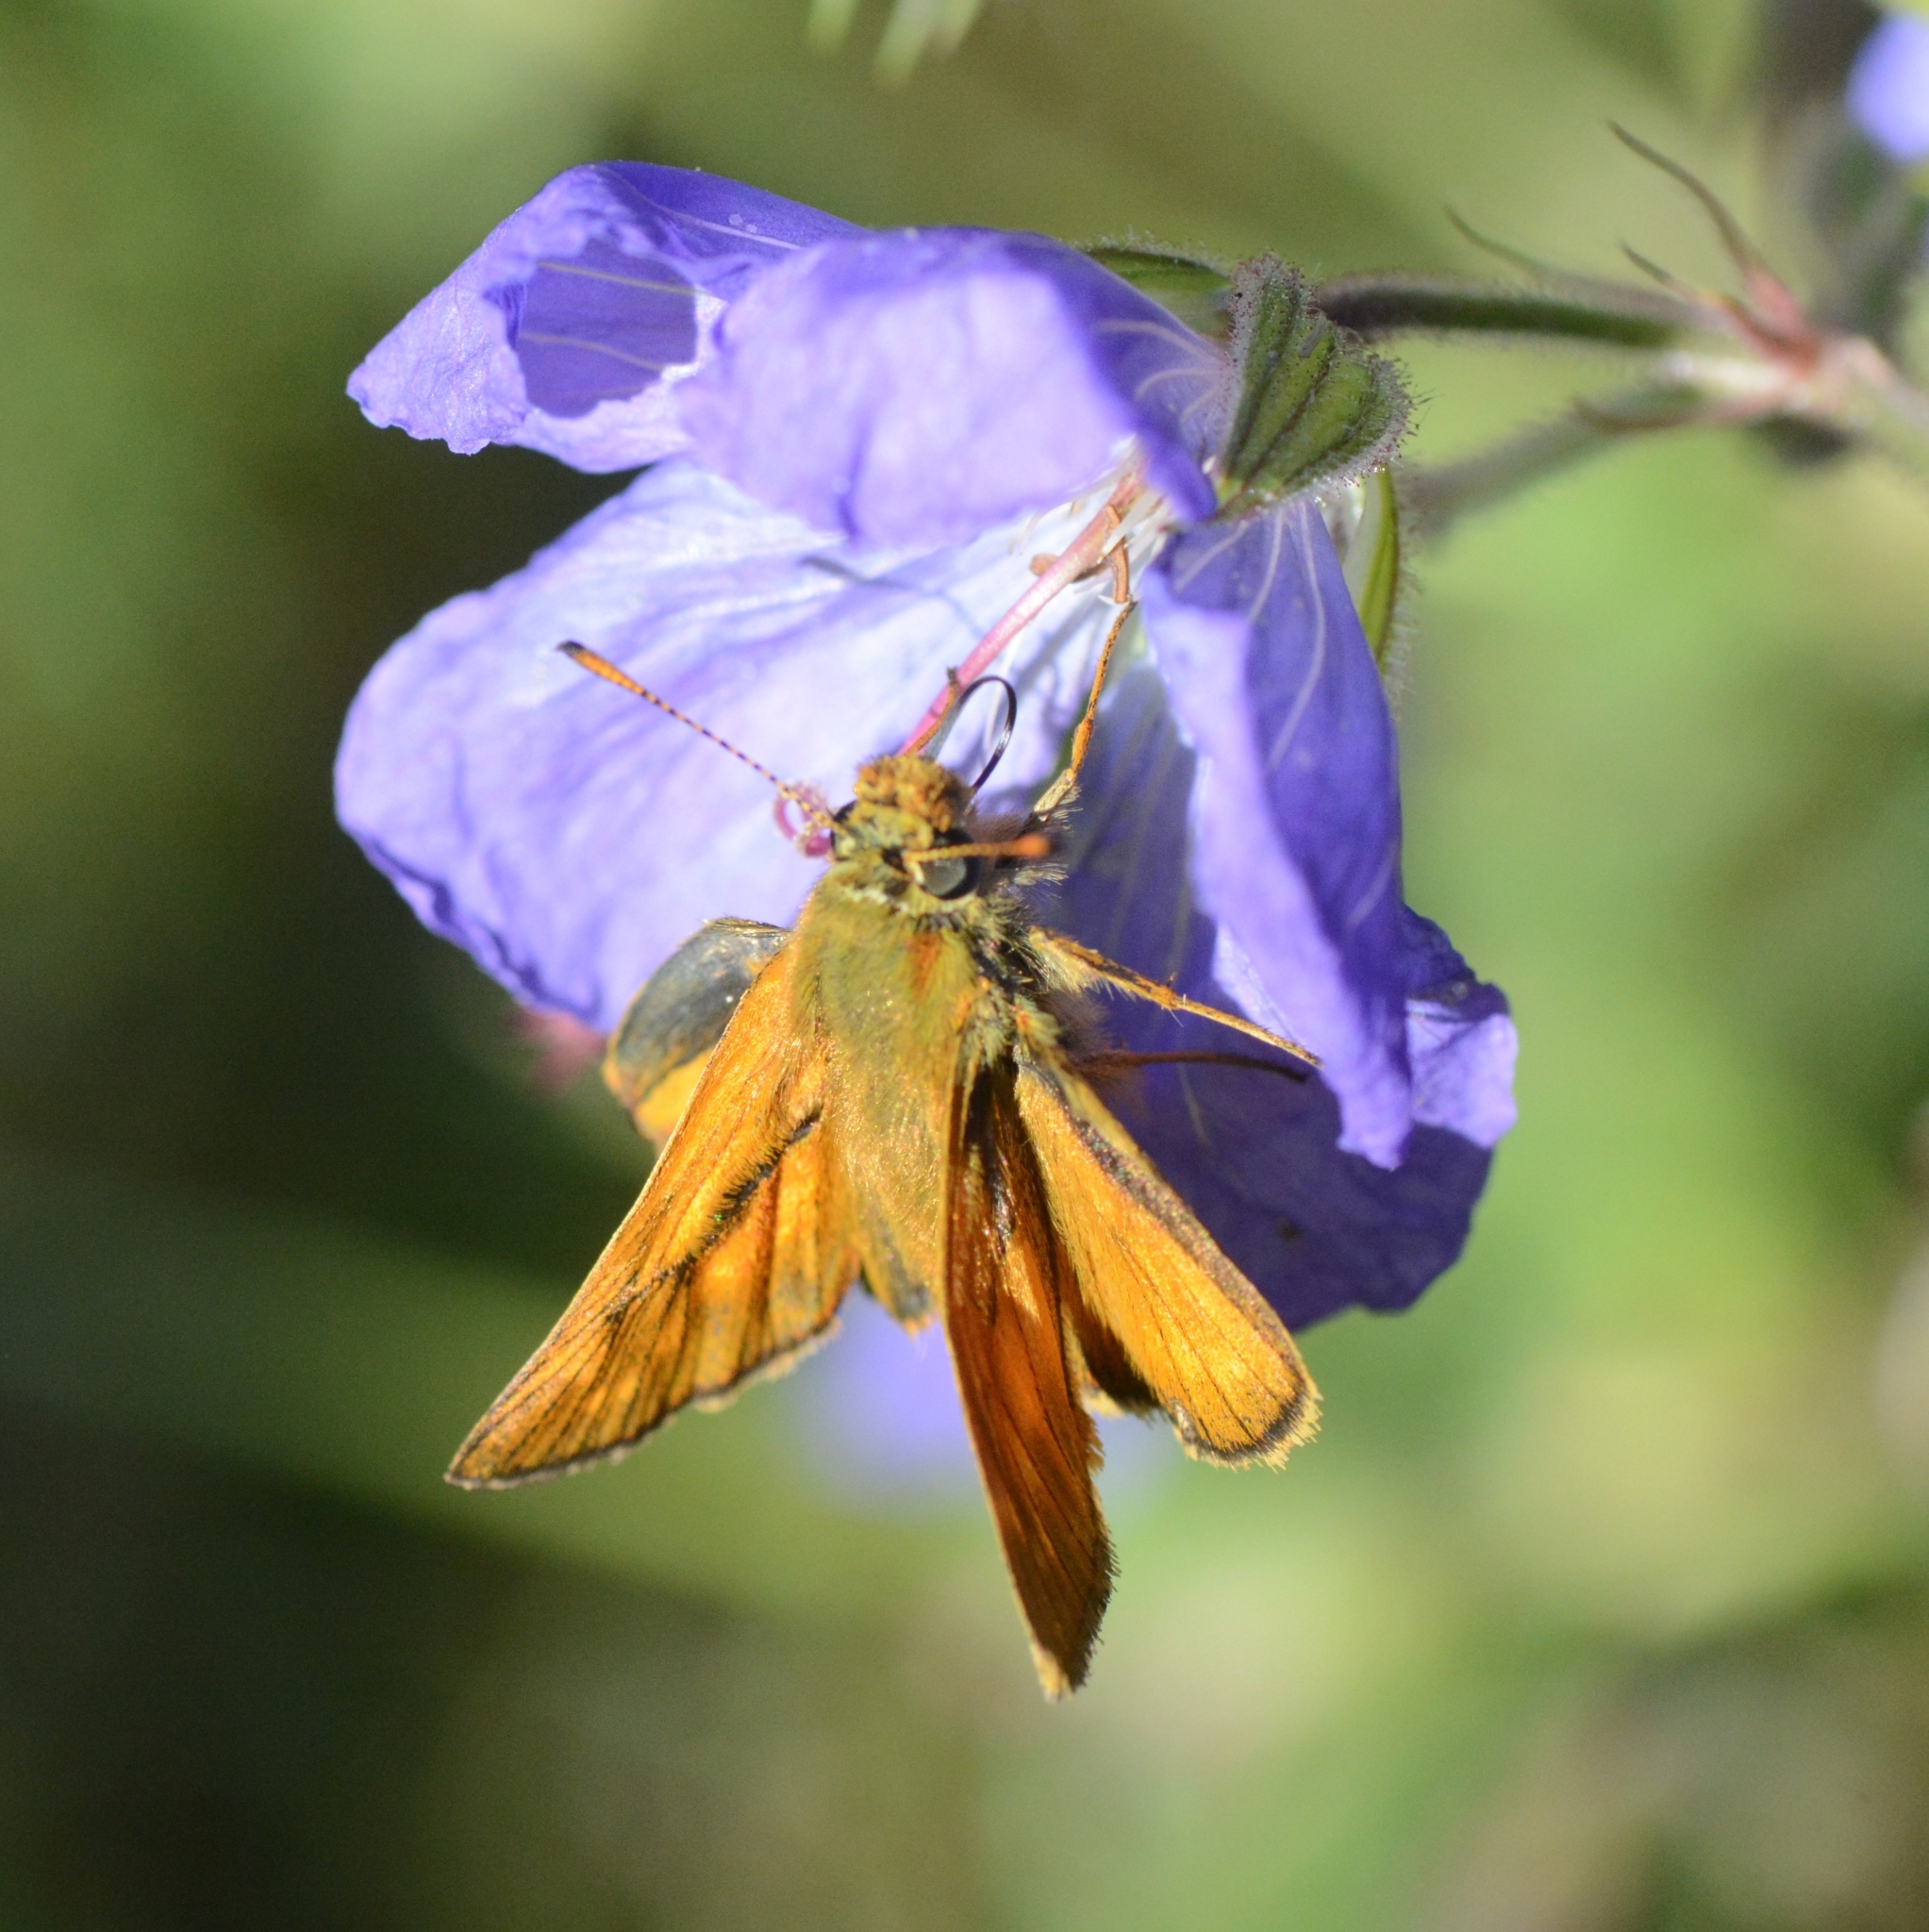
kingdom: Animalia
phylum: Arthropoda
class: Insecta
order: Lepidoptera
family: Hesperiidae
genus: Ochlodes
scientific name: Ochlodes venata
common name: Large skipper
